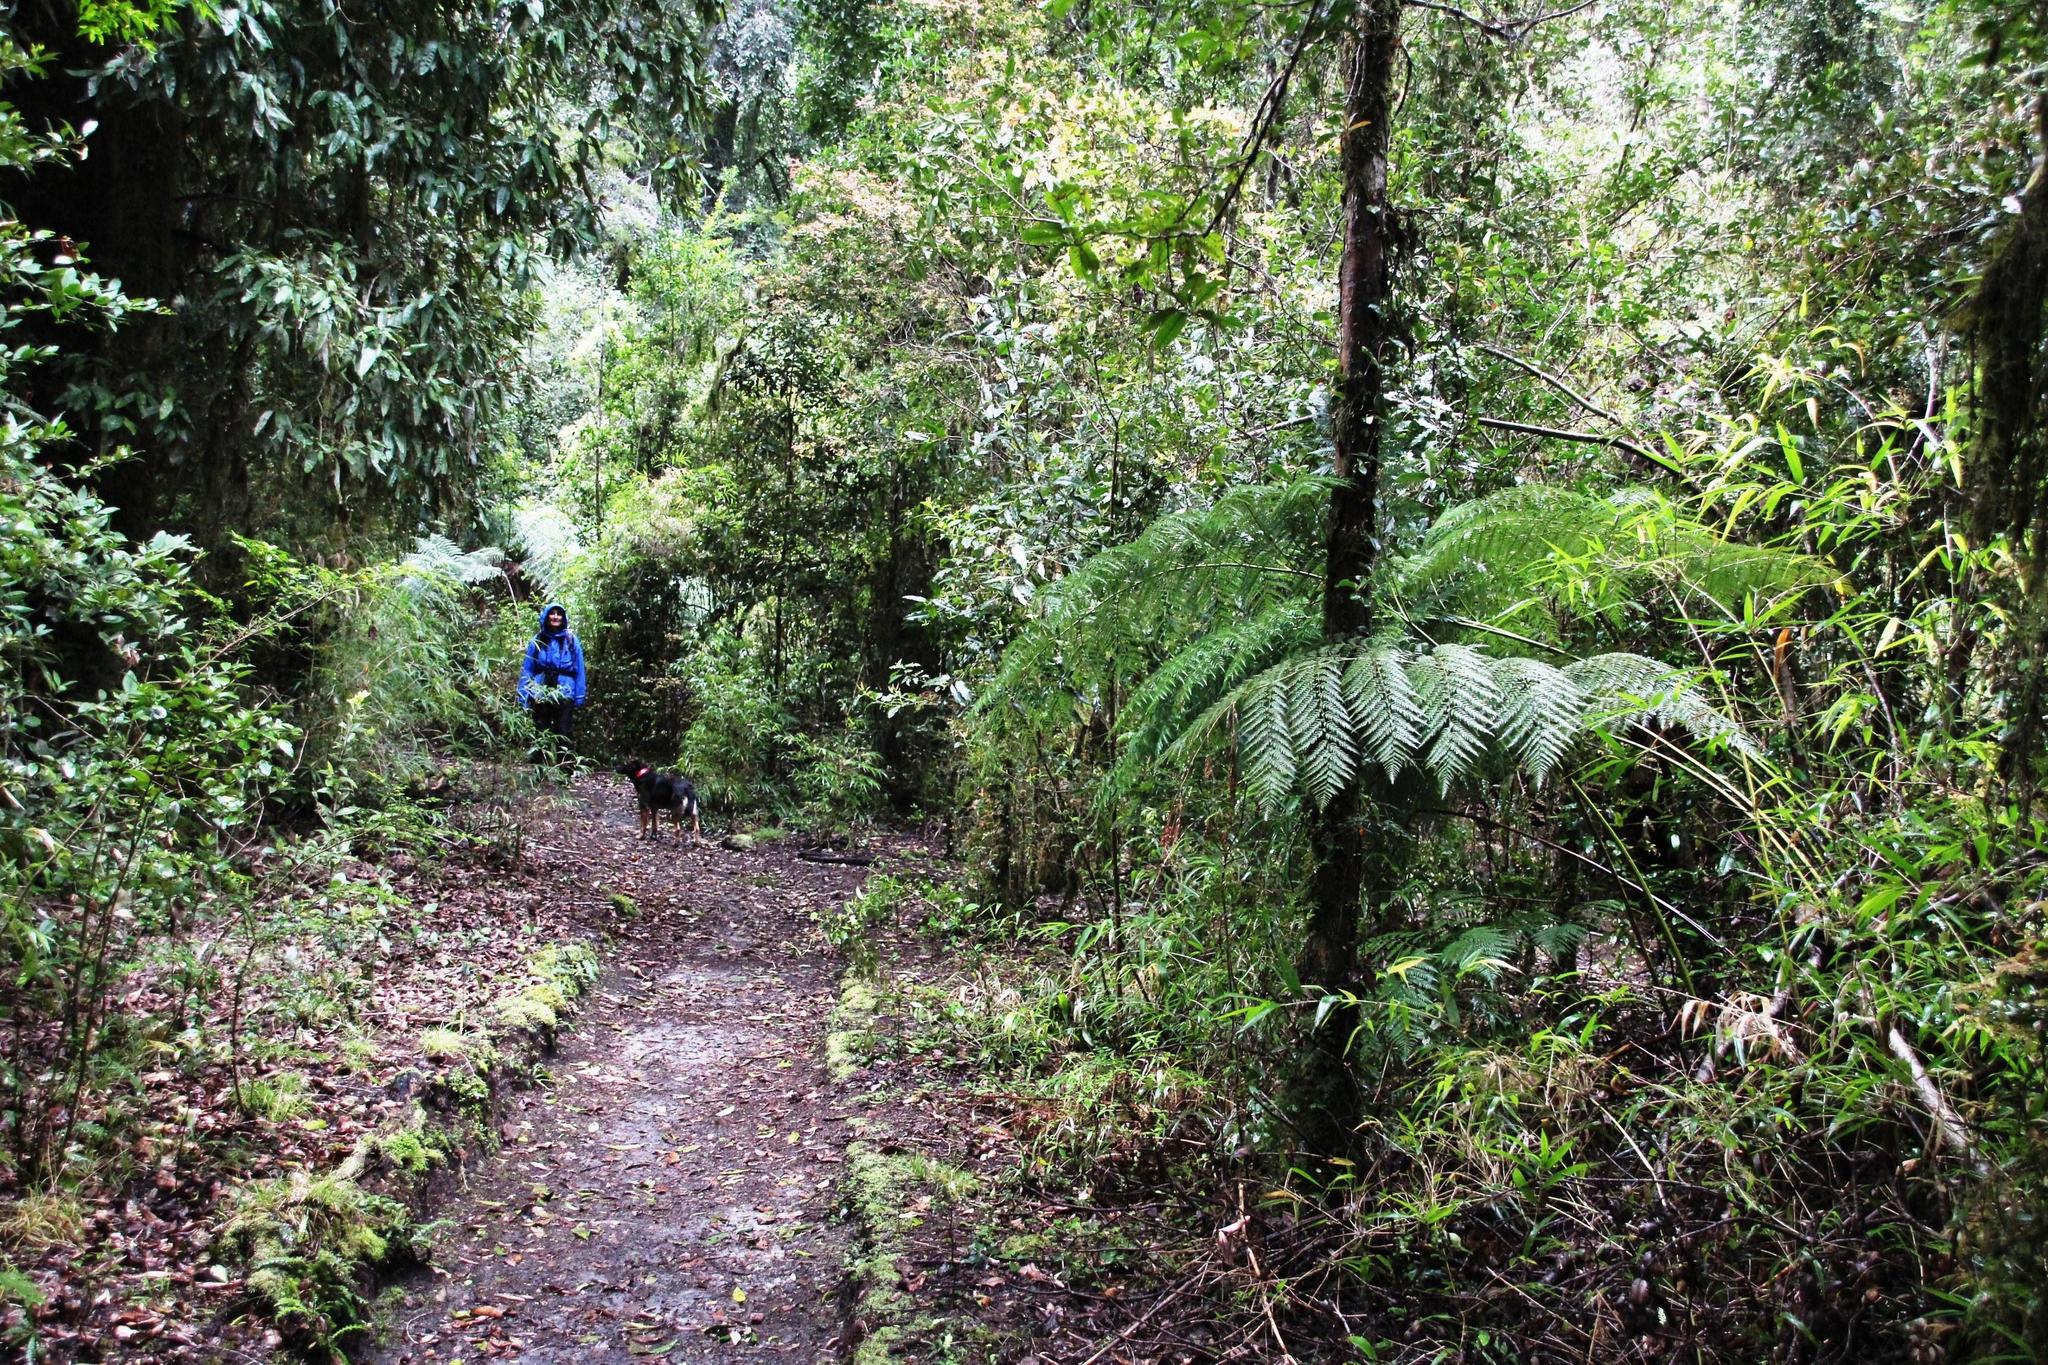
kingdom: Plantae
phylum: Tracheophyta
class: Polypodiopsida
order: Cyatheales
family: Dicksoniaceae
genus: Lophosoria
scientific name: Lophosoria quadripinnata
